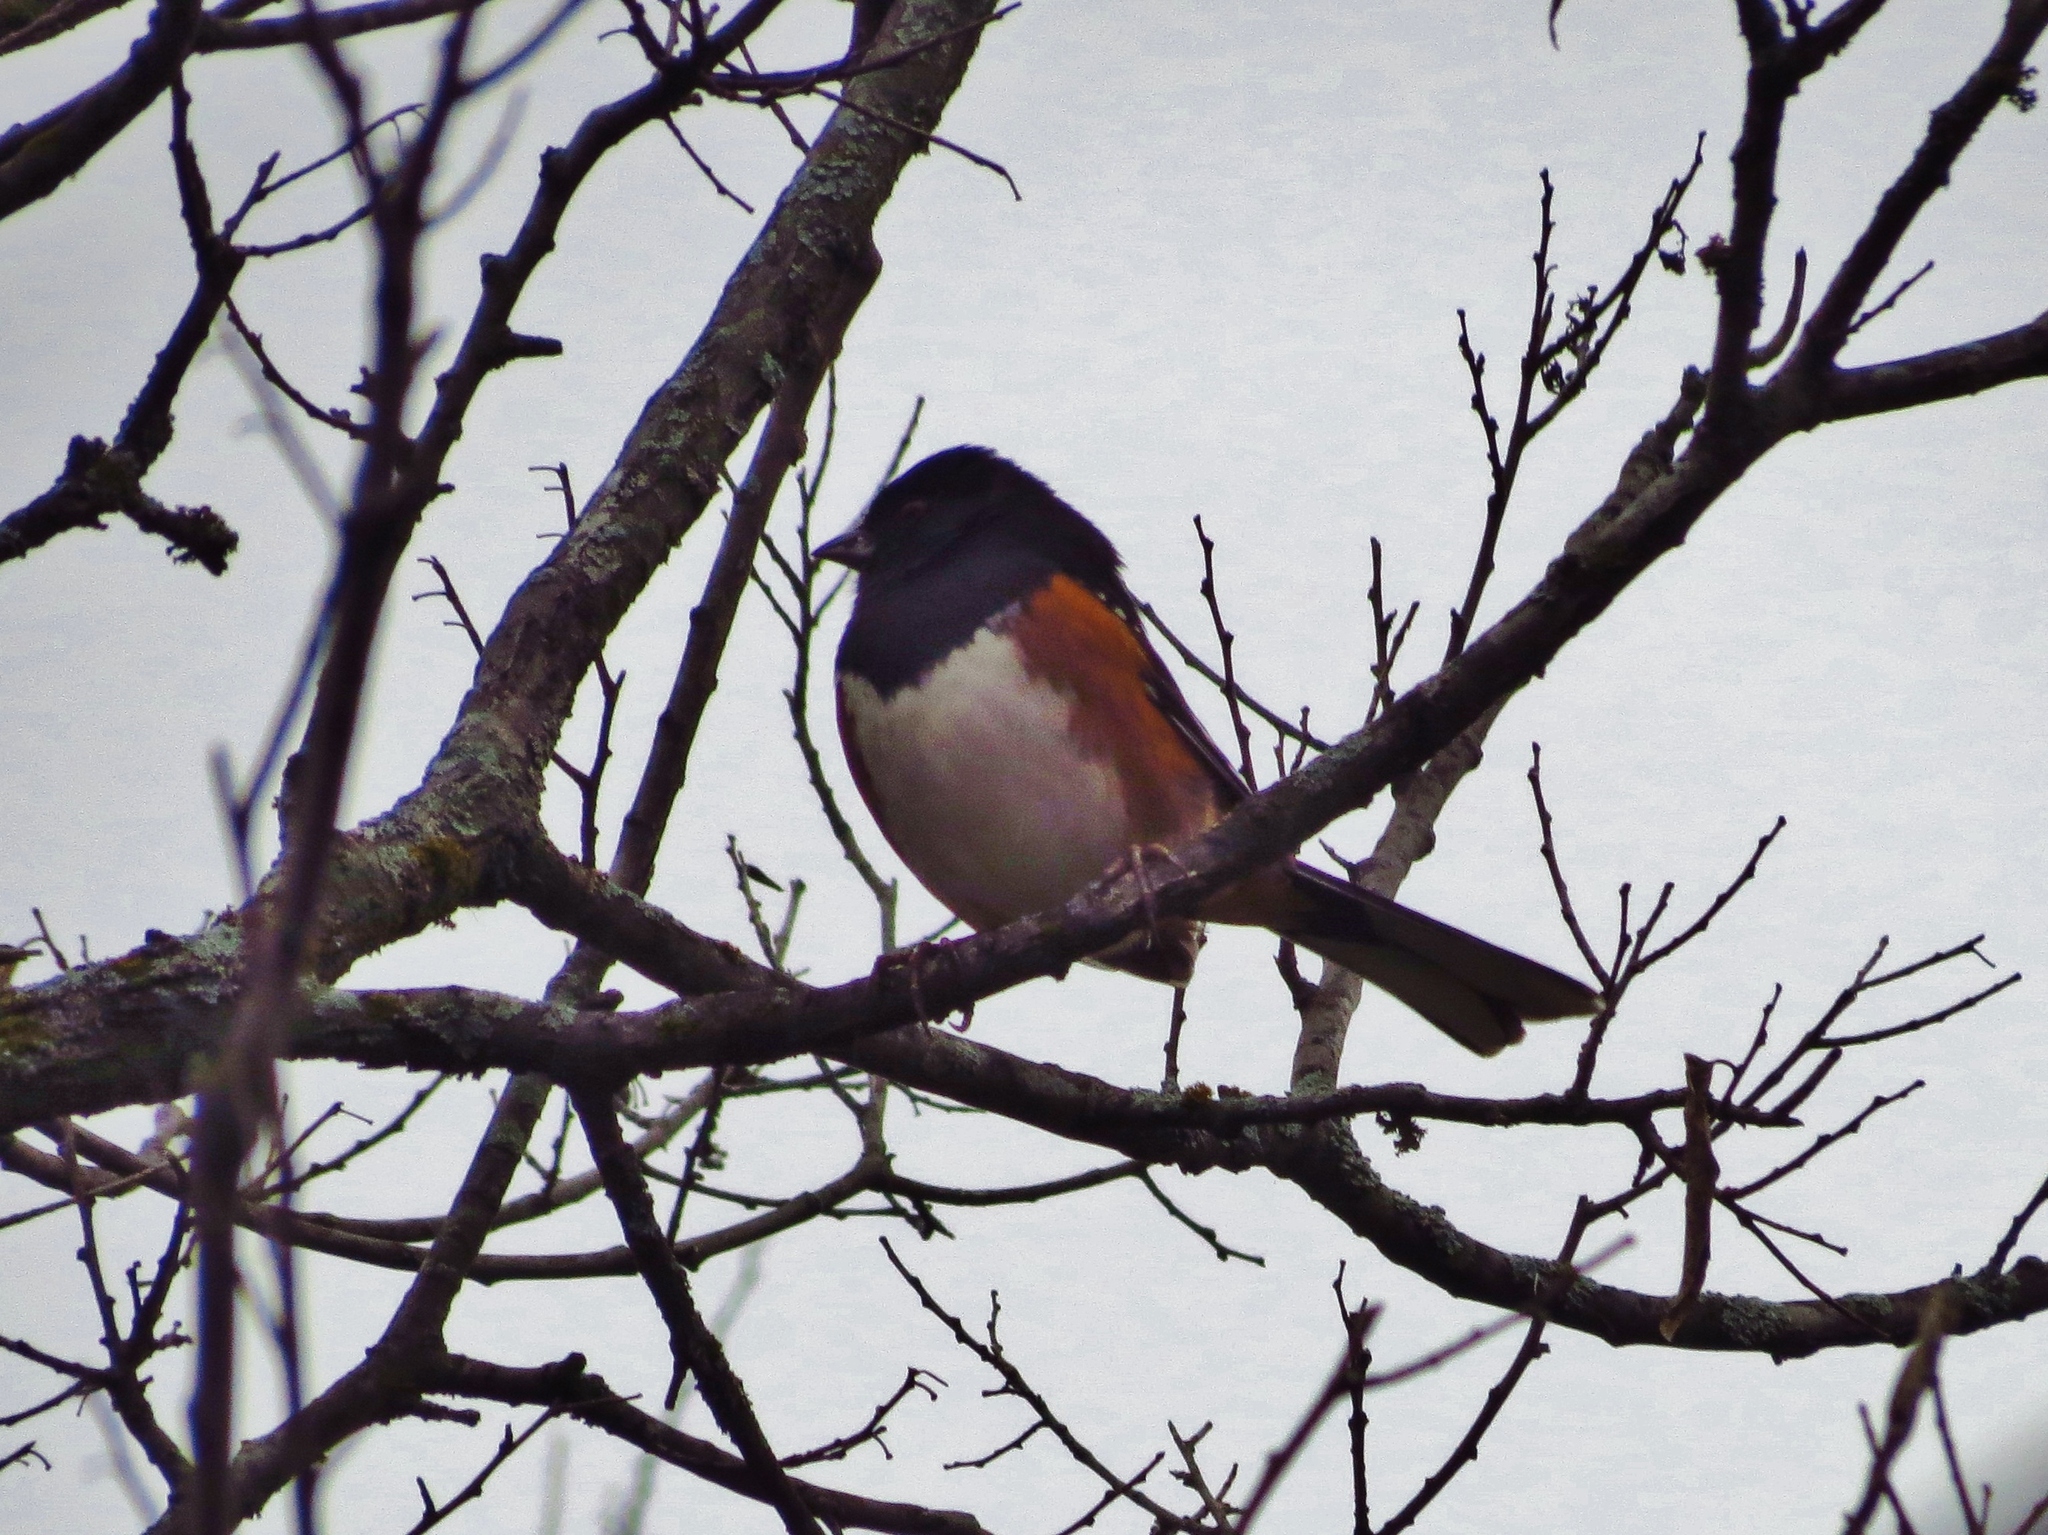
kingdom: Animalia
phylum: Chordata
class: Aves
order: Passeriformes
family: Passerellidae
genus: Pipilo
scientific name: Pipilo maculatus
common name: Spotted towhee
